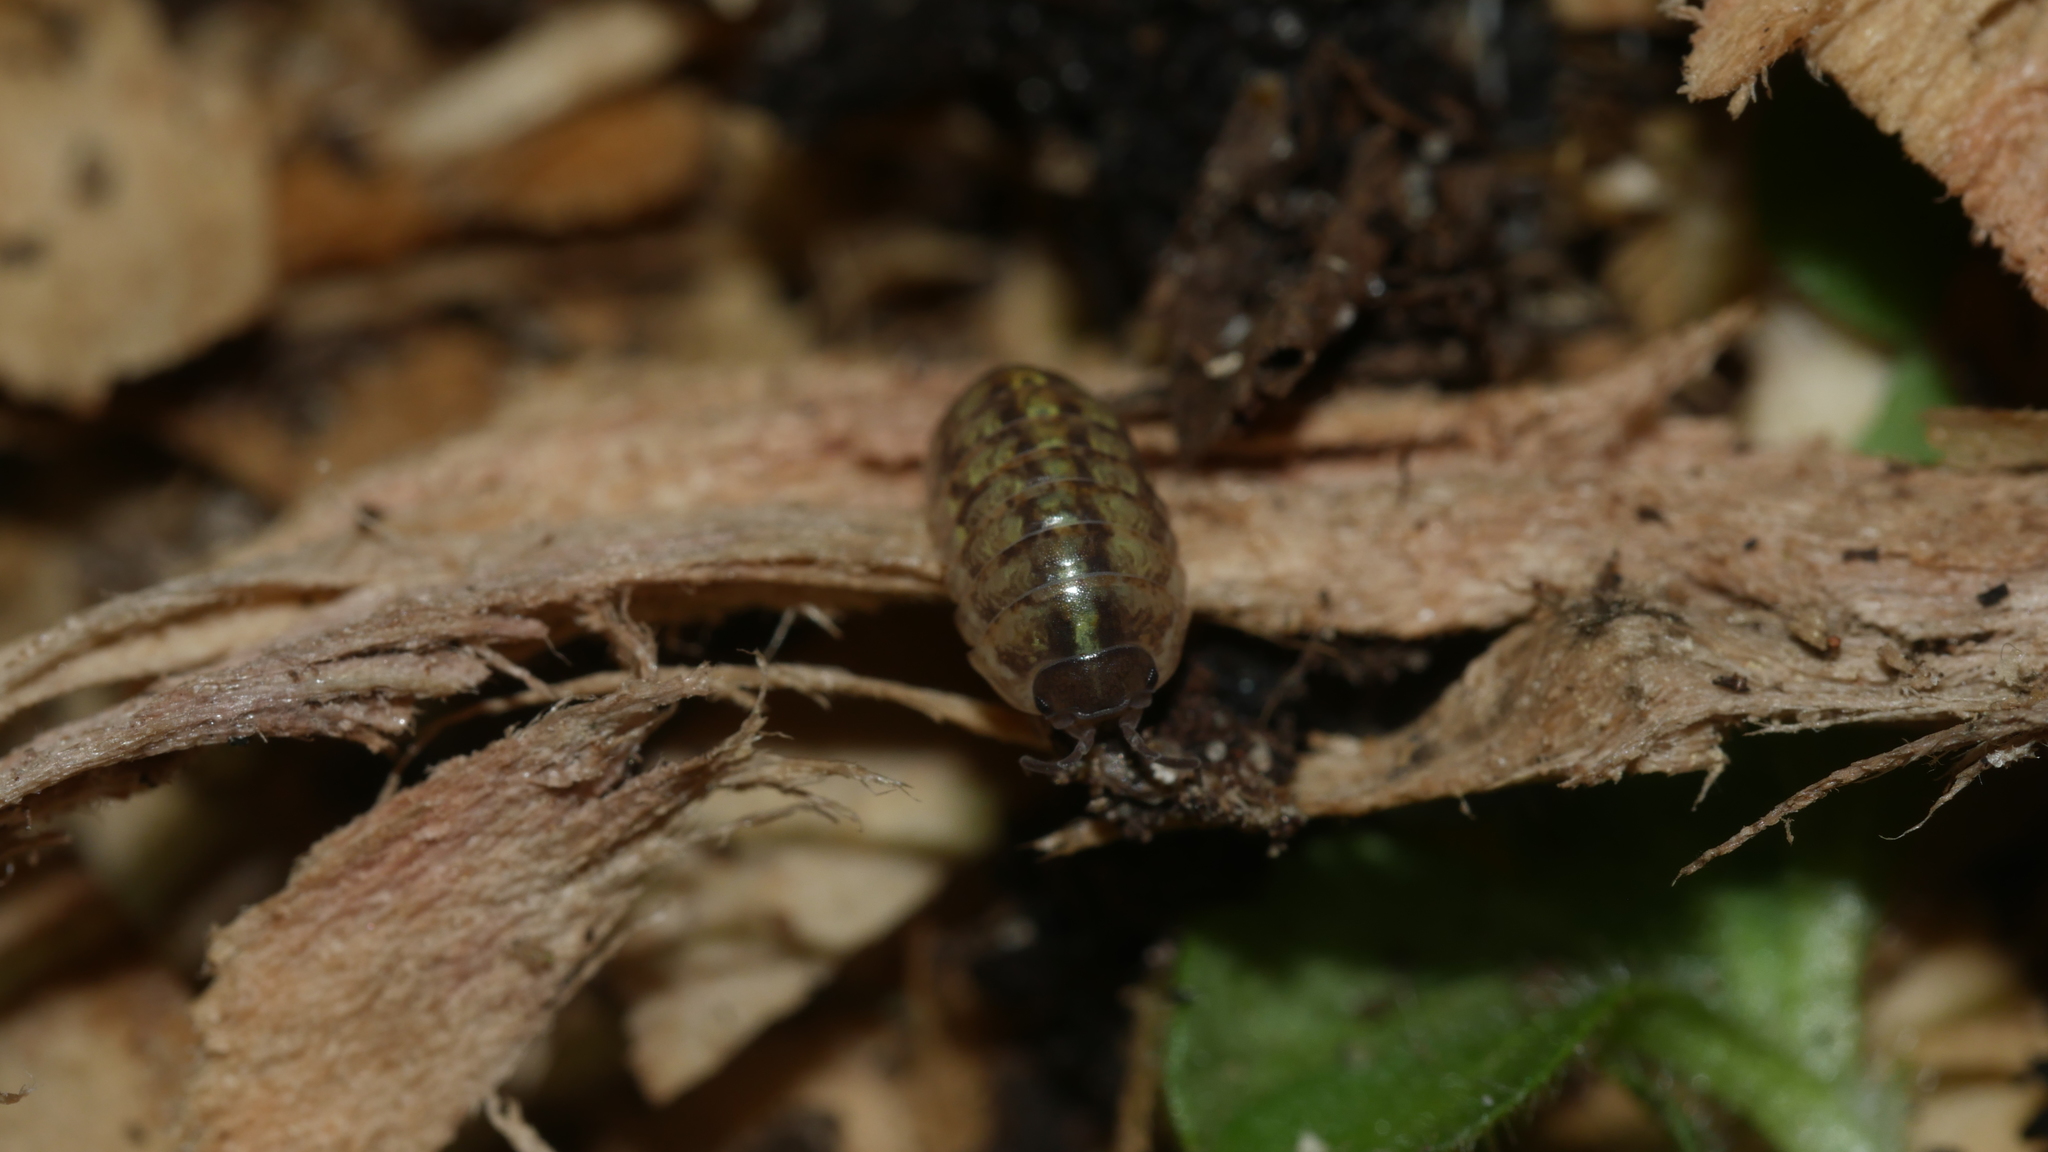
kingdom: Animalia
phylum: Arthropoda
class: Malacostraca
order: Isopoda
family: Armadillidiidae
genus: Armadillidium
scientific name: Armadillidium vulgare
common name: Common pill woodlouse
